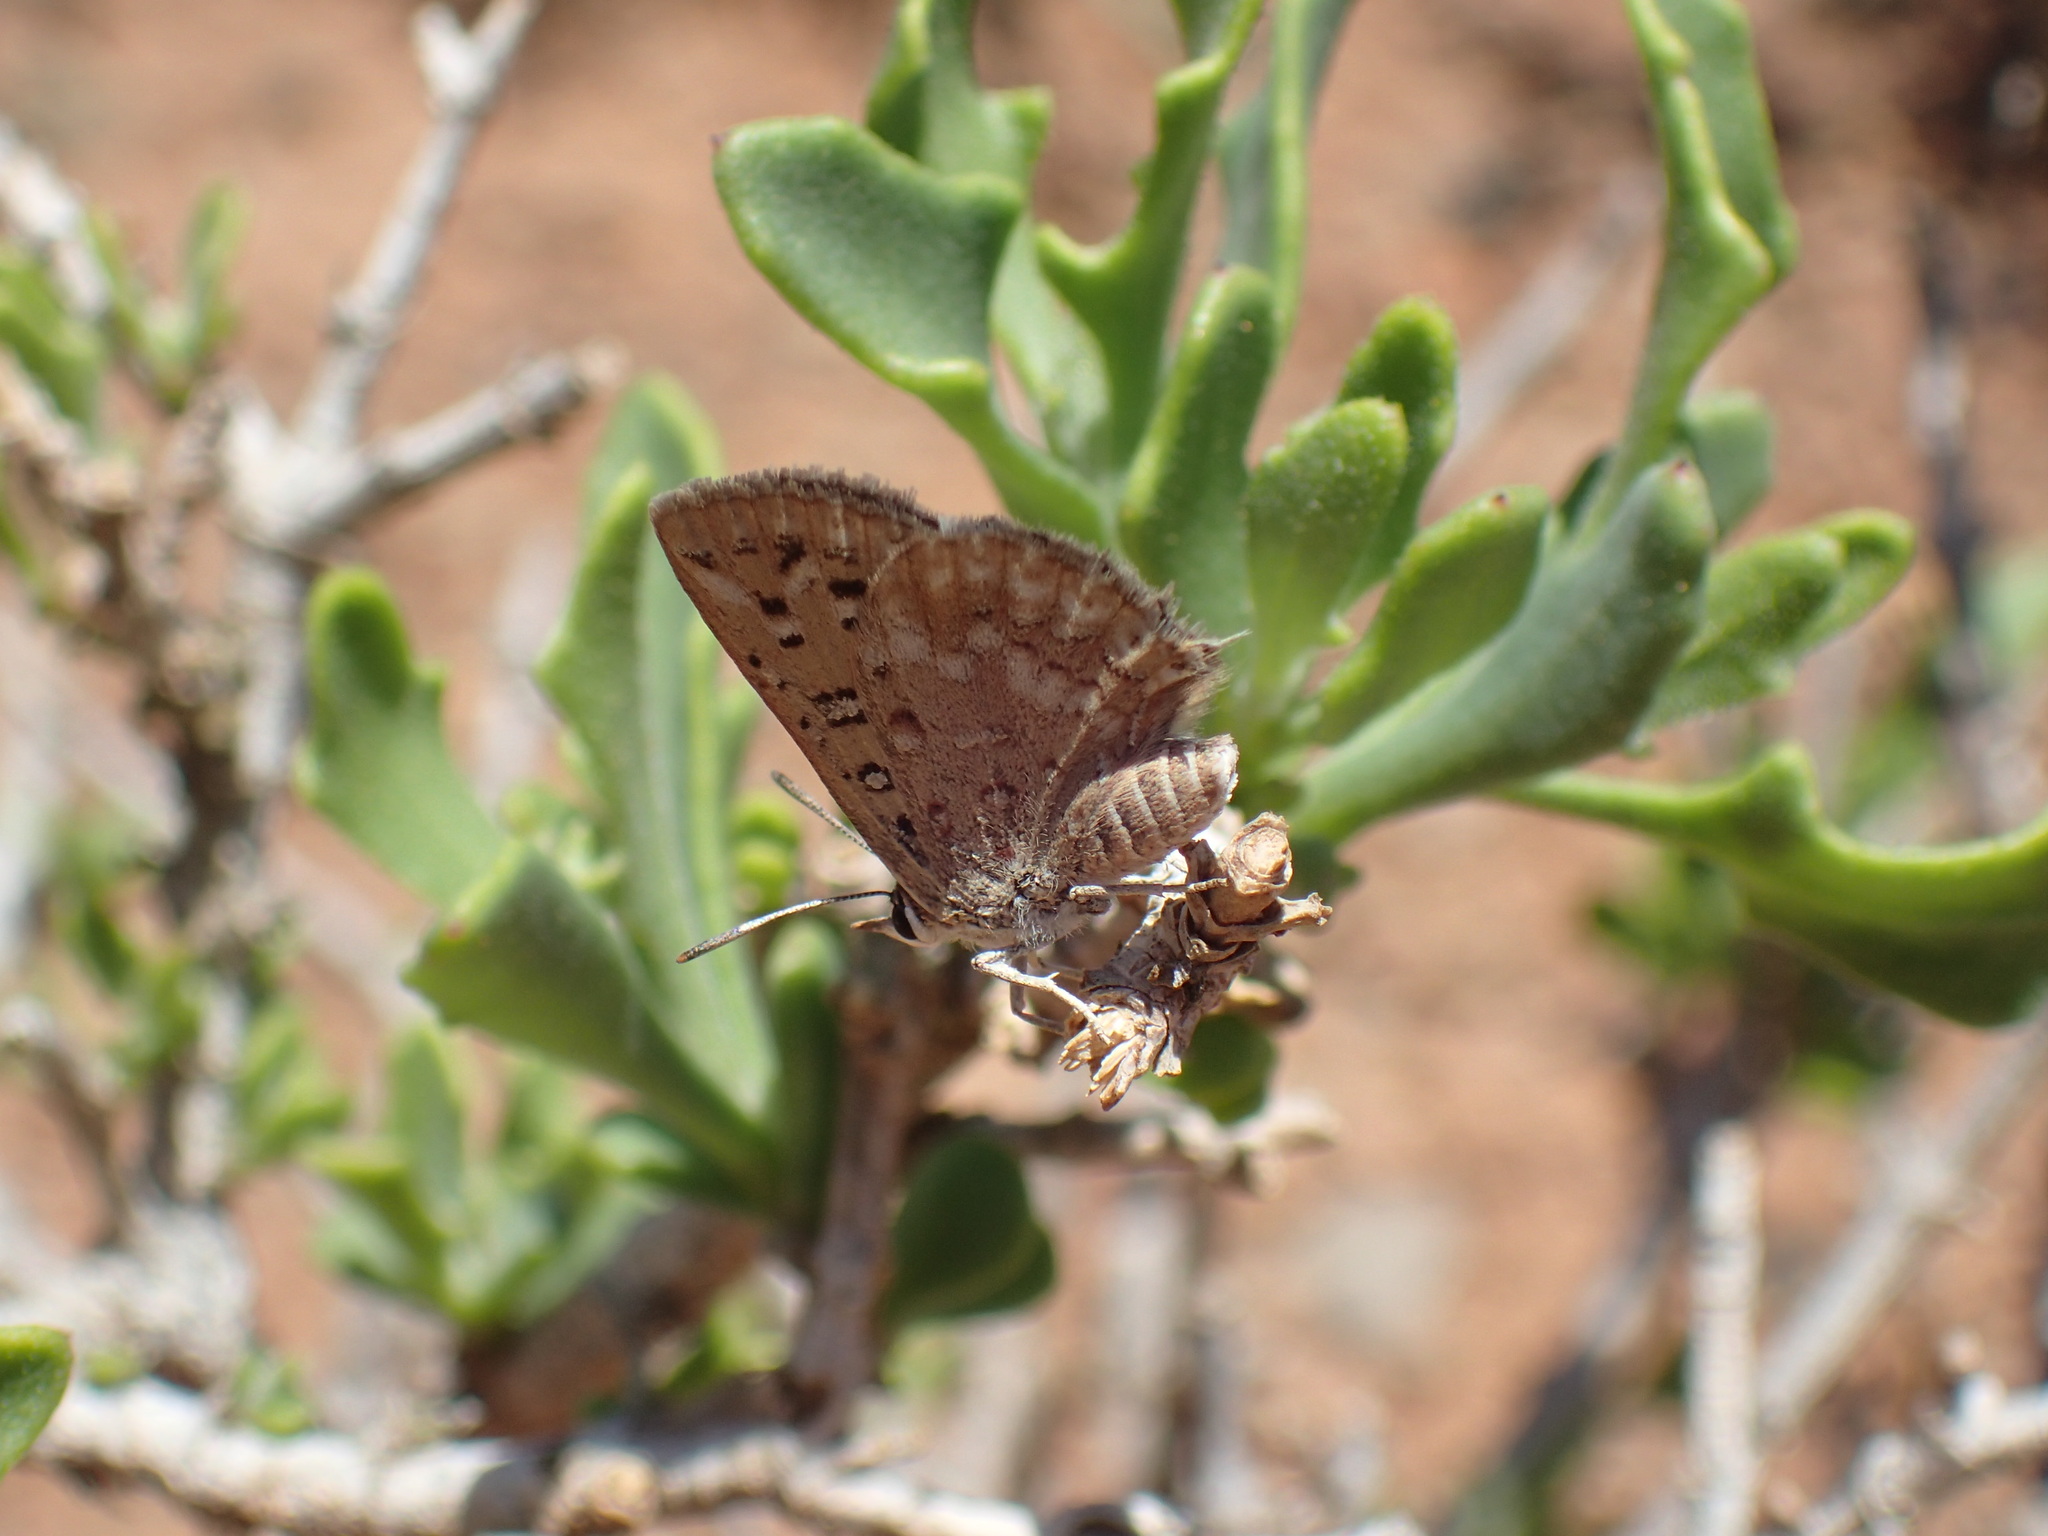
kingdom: Animalia
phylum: Arthropoda
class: Insecta
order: Lepidoptera
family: Lycaenidae
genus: Crudaria
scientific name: Crudaria leroma
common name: Silver spotted grey
